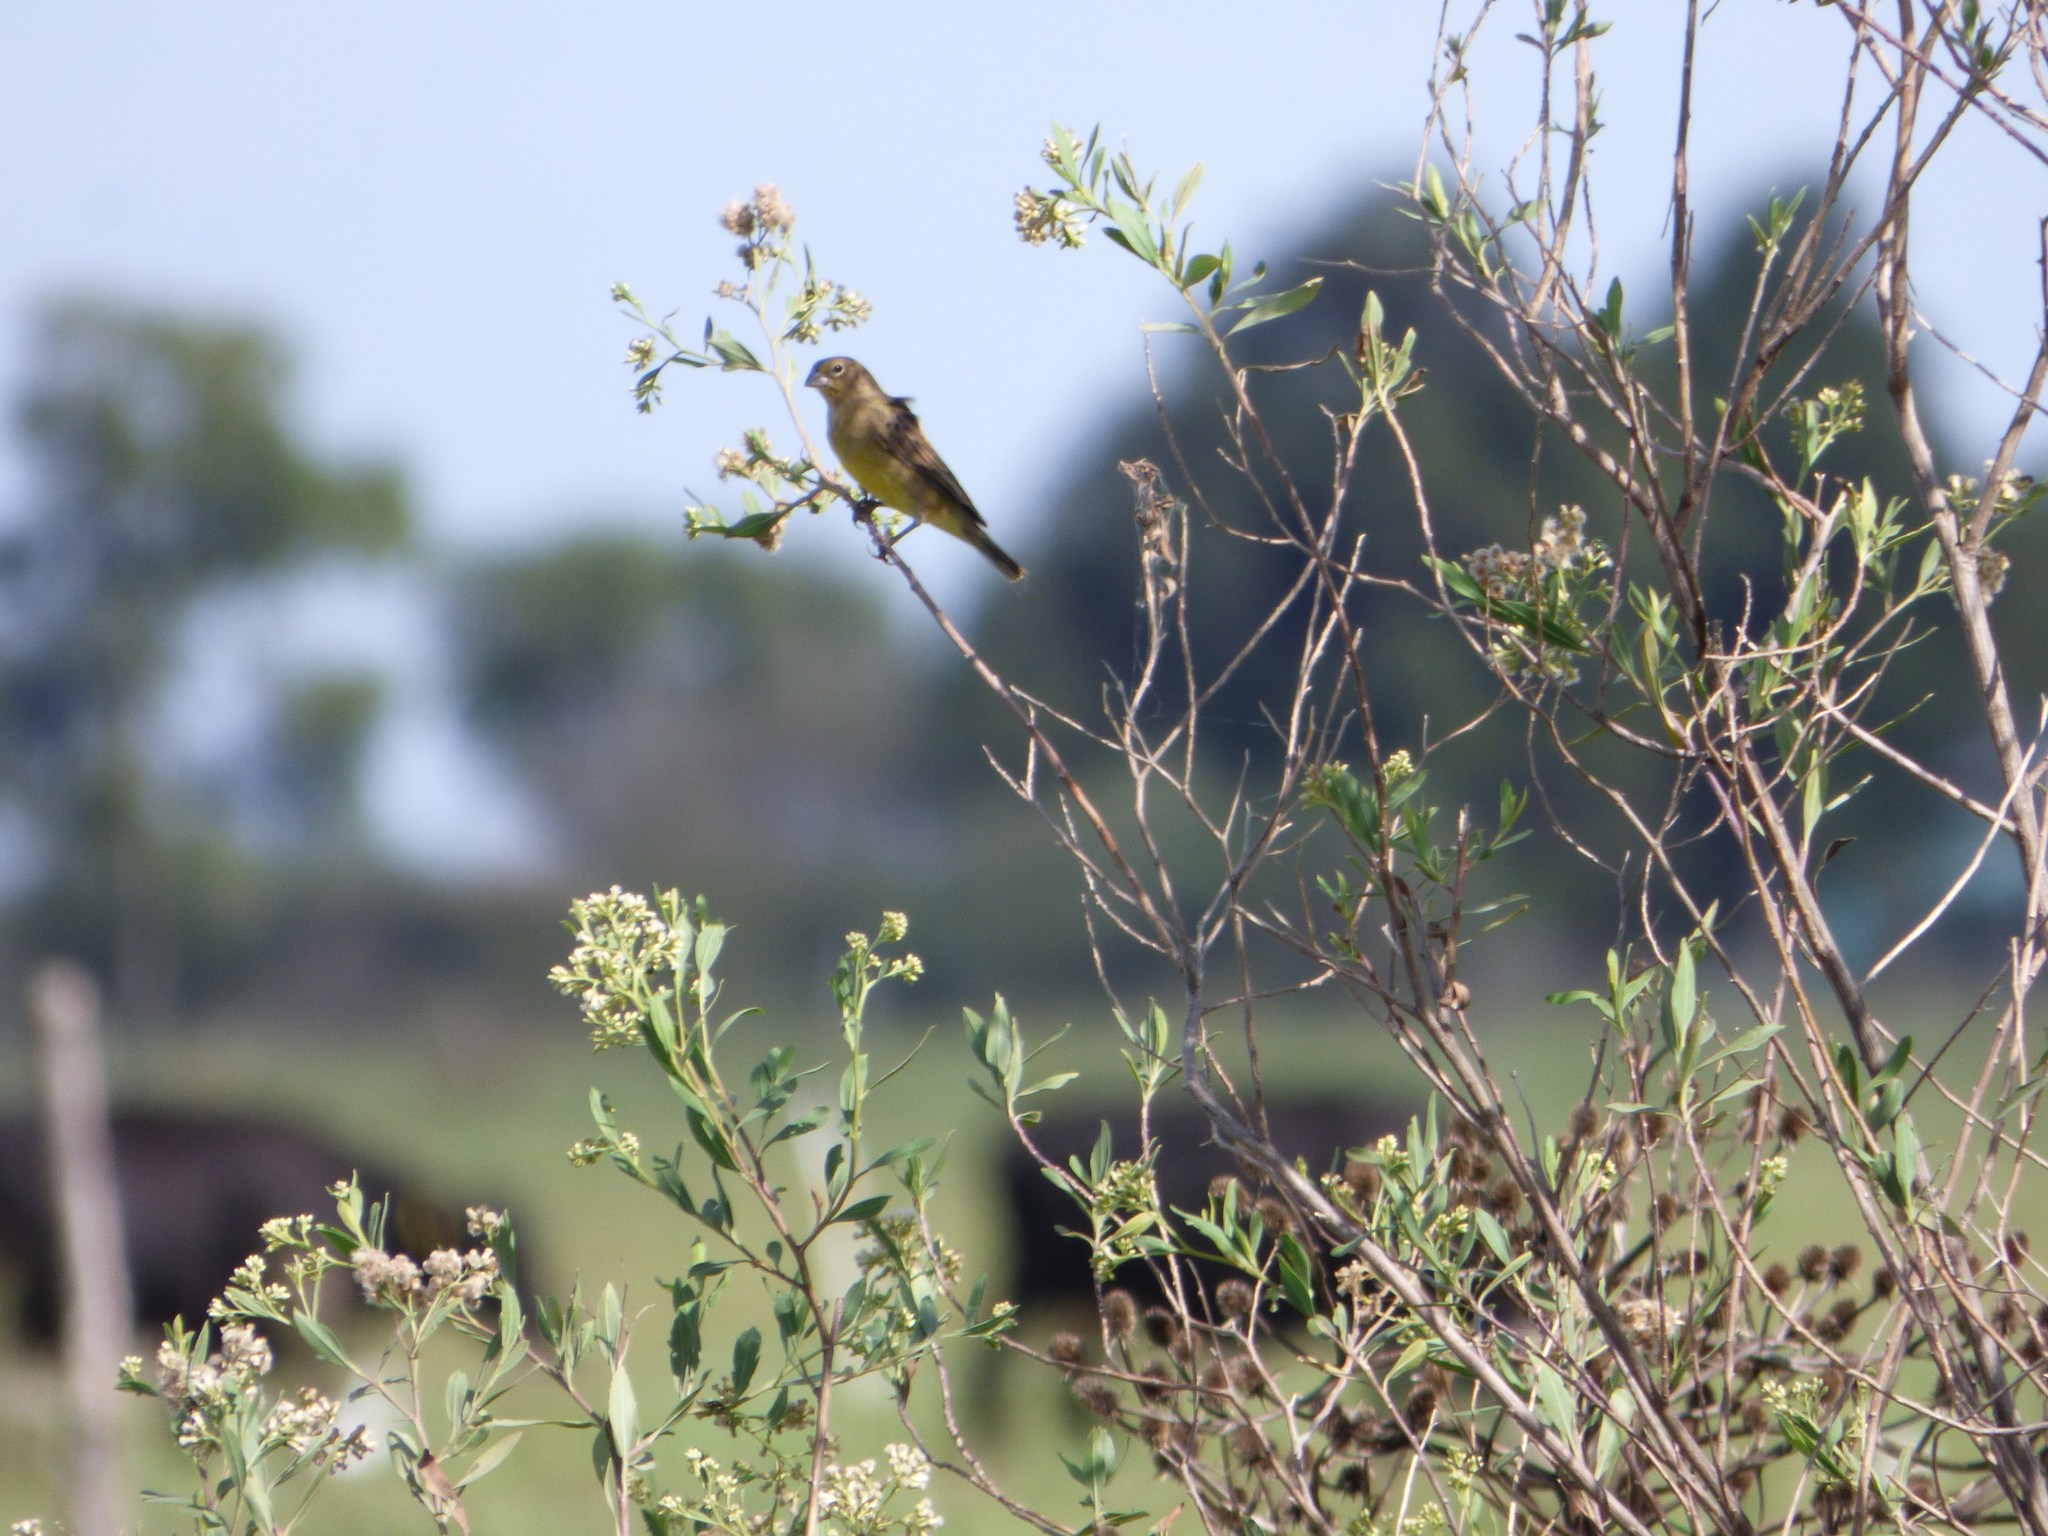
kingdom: Animalia
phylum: Chordata
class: Aves
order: Passeriformes
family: Thraupidae
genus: Sicalis
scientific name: Sicalis luteola
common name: Grassland yellow-finch
